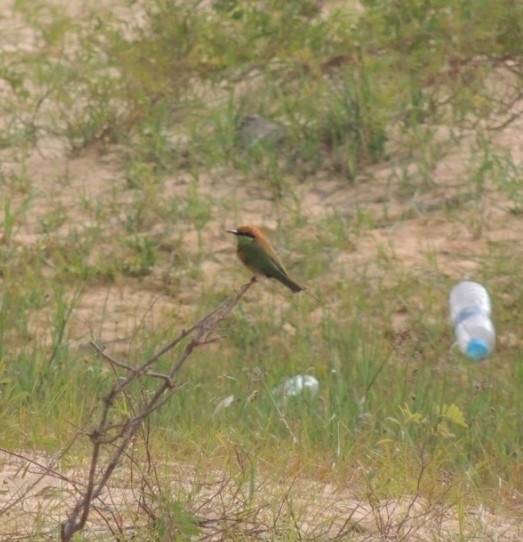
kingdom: Animalia
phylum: Chordata
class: Aves
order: Coraciiformes
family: Meropidae
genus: Merops
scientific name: Merops orientalis
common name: Green bee-eater
